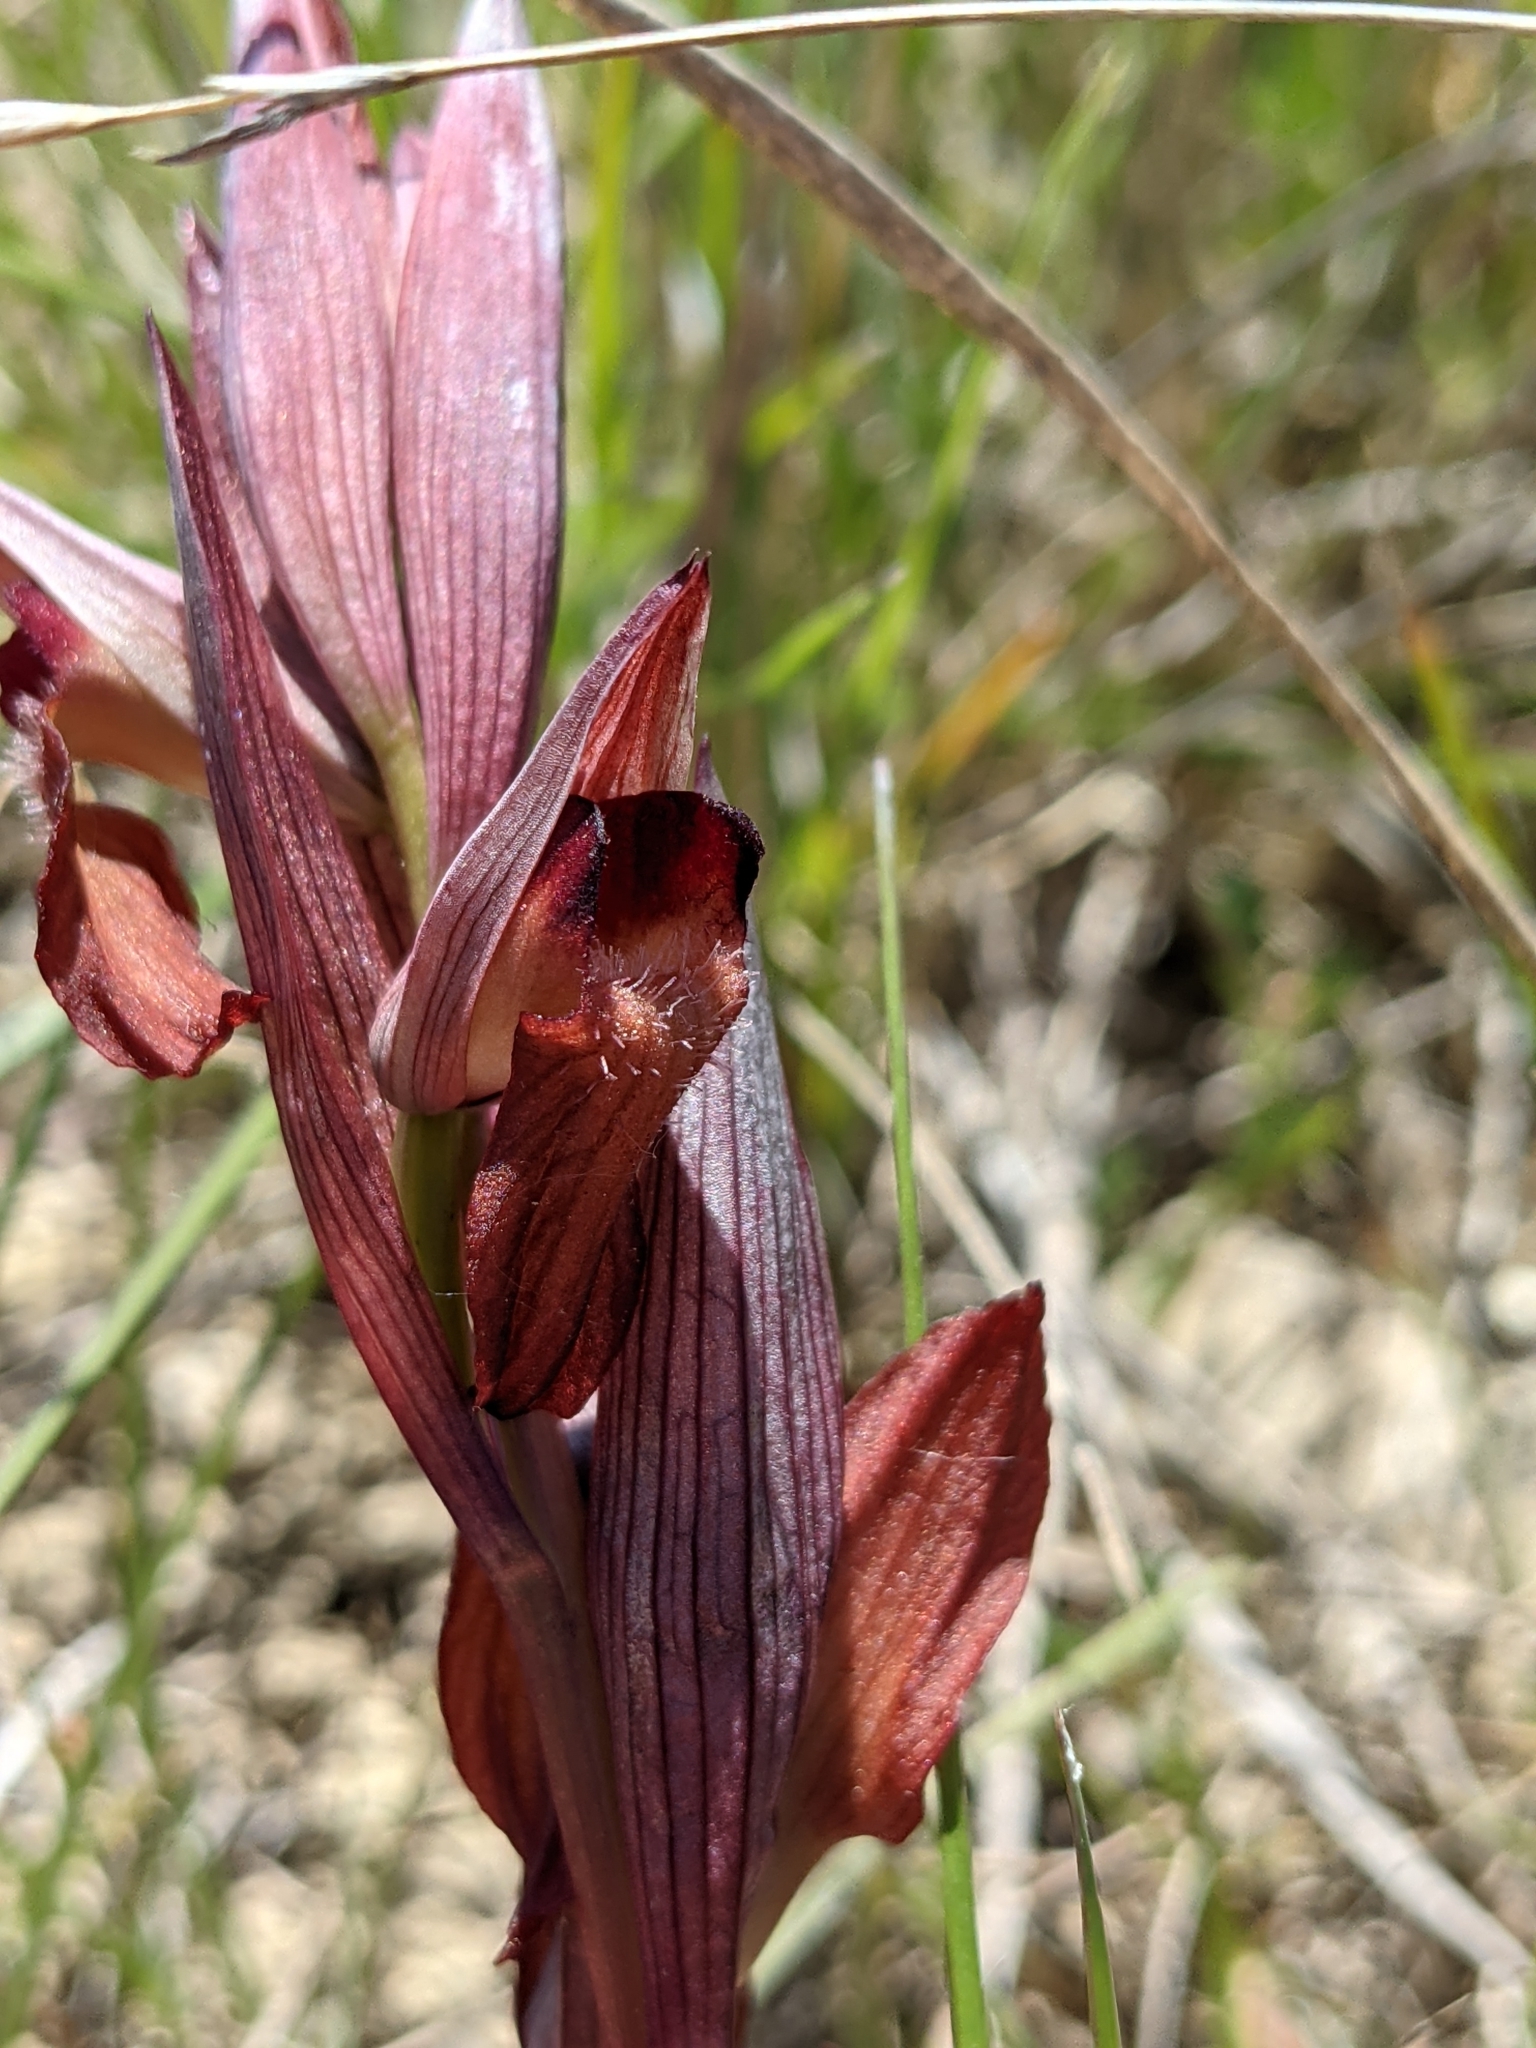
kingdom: Plantae
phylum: Tracheophyta
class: Liliopsida
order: Asparagales
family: Orchidaceae
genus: Serapias
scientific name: Serapias vomeracea
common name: Long-lipped tongue-orchid
